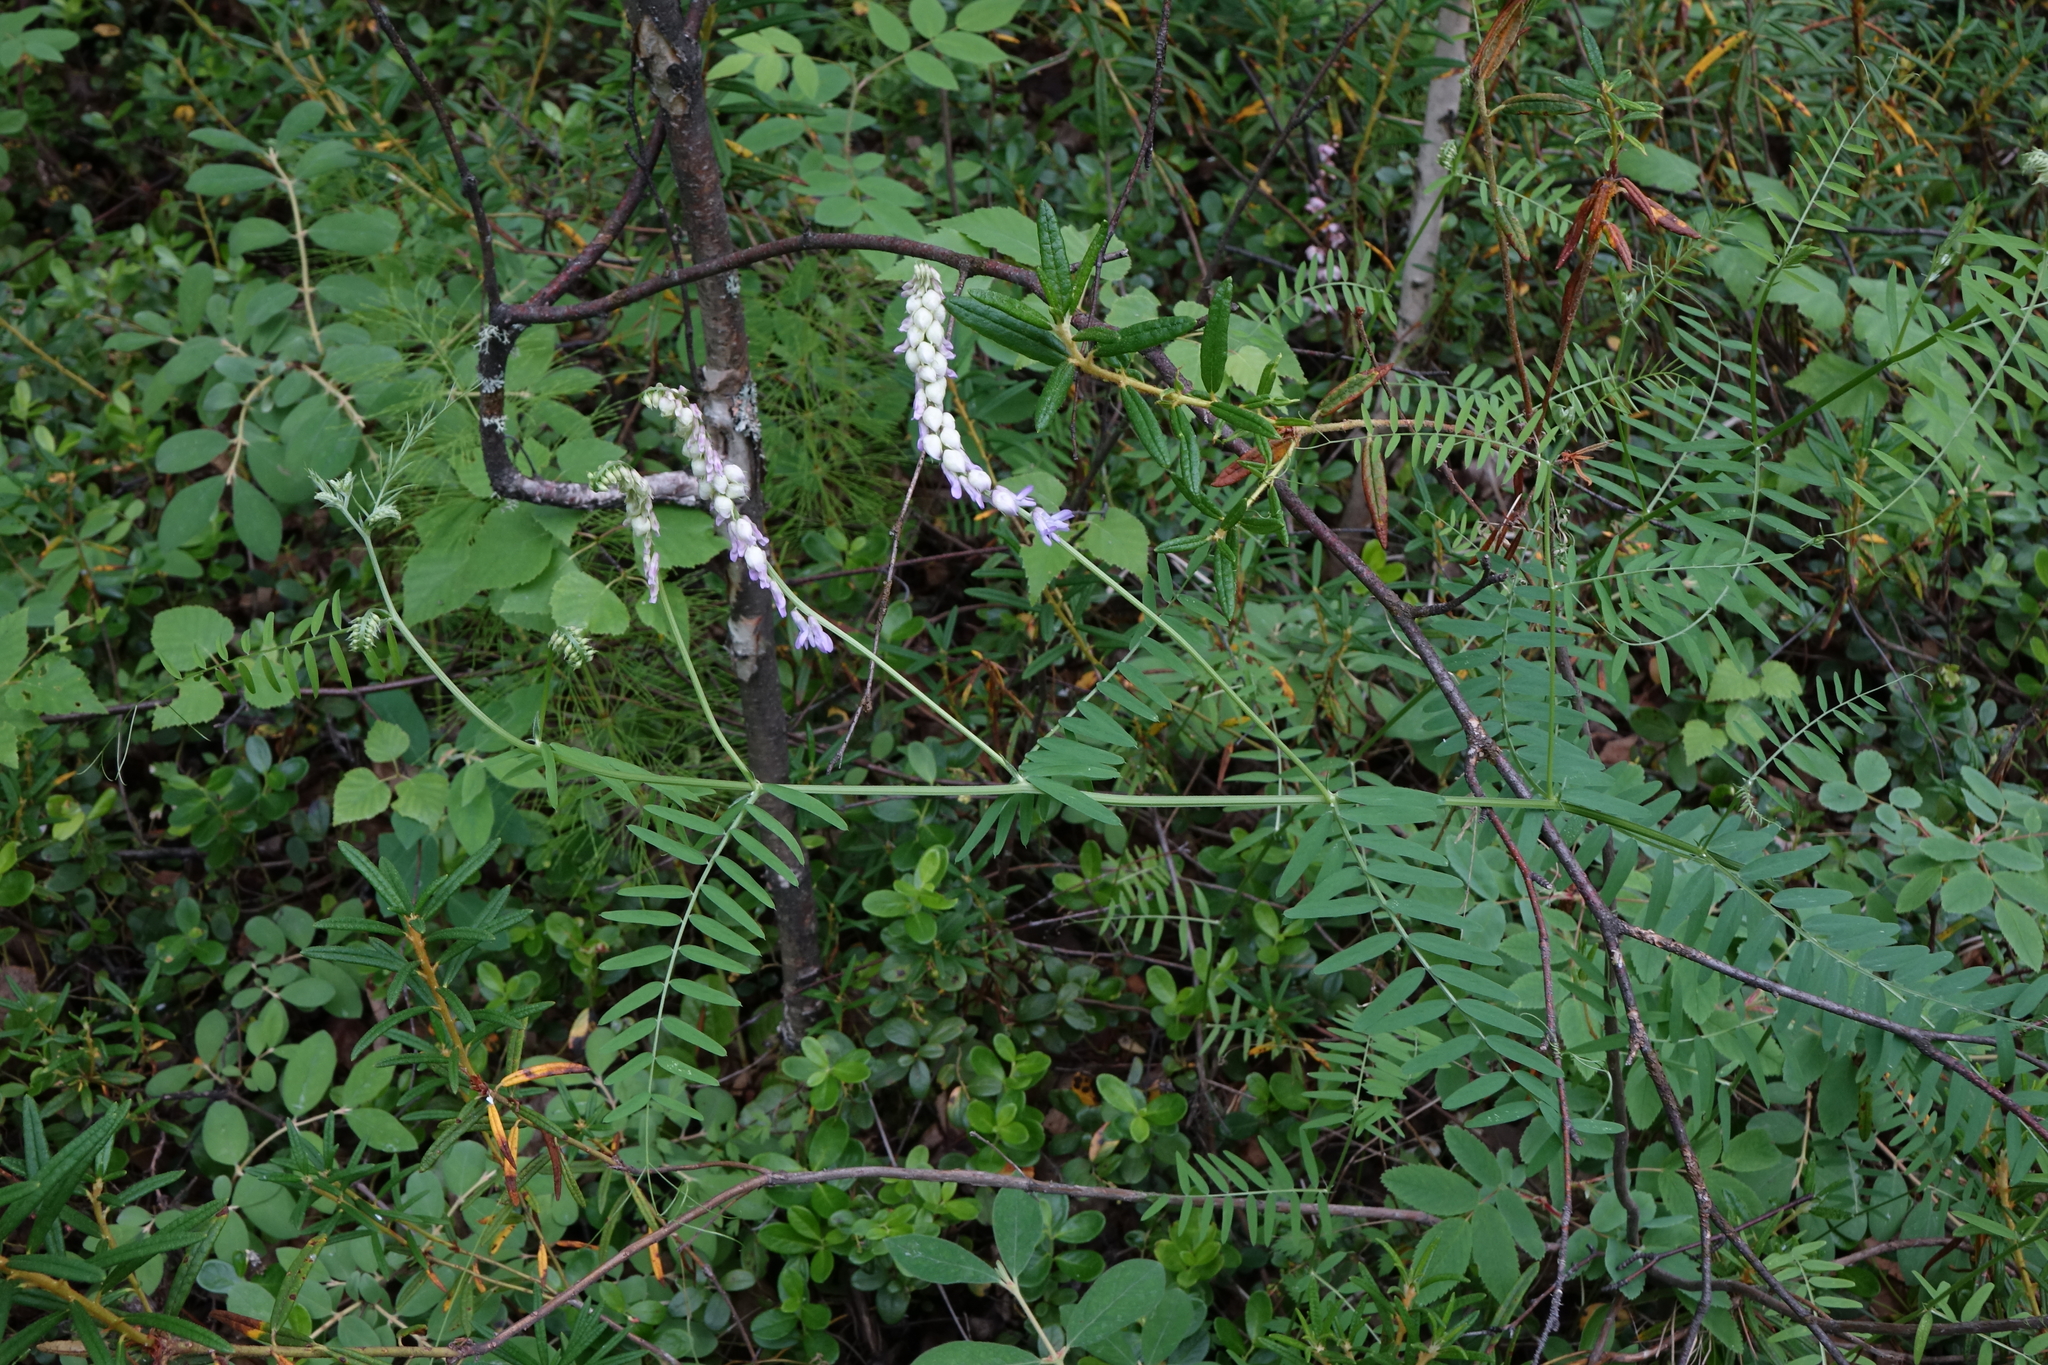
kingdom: Plantae
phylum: Tracheophyta
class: Magnoliopsida
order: Fabales
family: Fabaceae
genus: Vicia
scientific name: Vicia cracca
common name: Bird vetch
